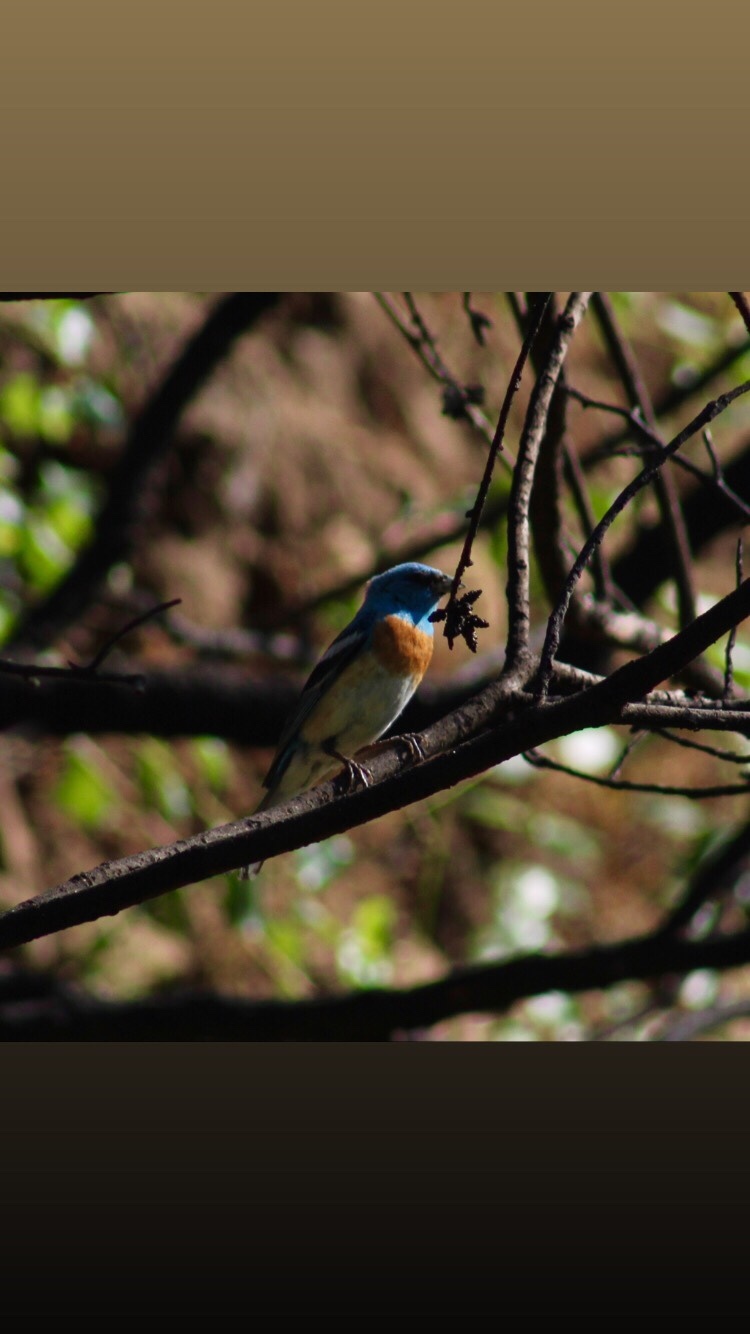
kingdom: Animalia
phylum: Chordata
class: Aves
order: Passeriformes
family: Cardinalidae
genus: Passerina
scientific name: Passerina amoena
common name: Lazuli bunting
